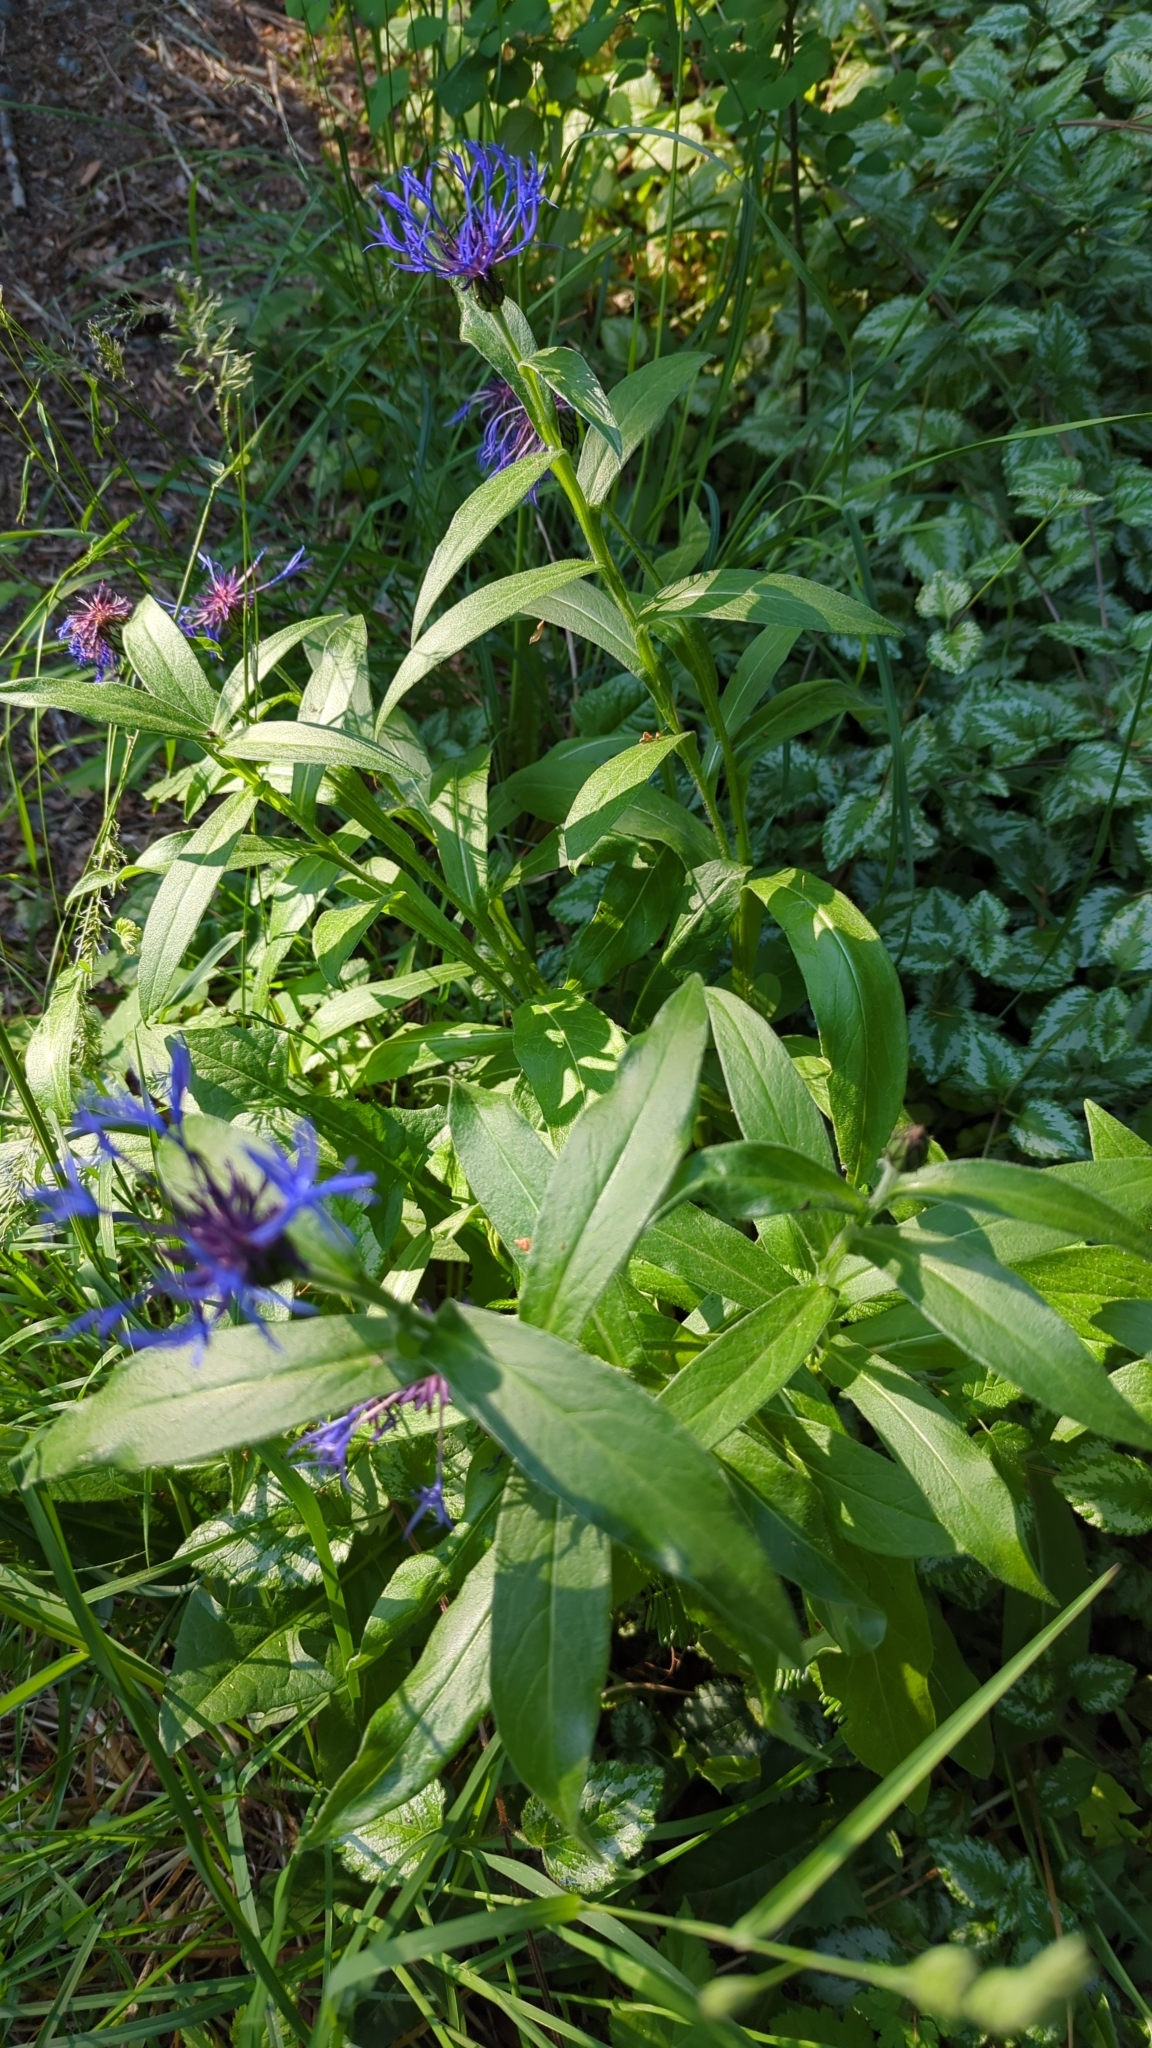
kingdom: Plantae
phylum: Tracheophyta
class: Magnoliopsida
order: Asterales
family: Asteraceae
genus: Centaurea
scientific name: Centaurea montana
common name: Perennial cornflower
